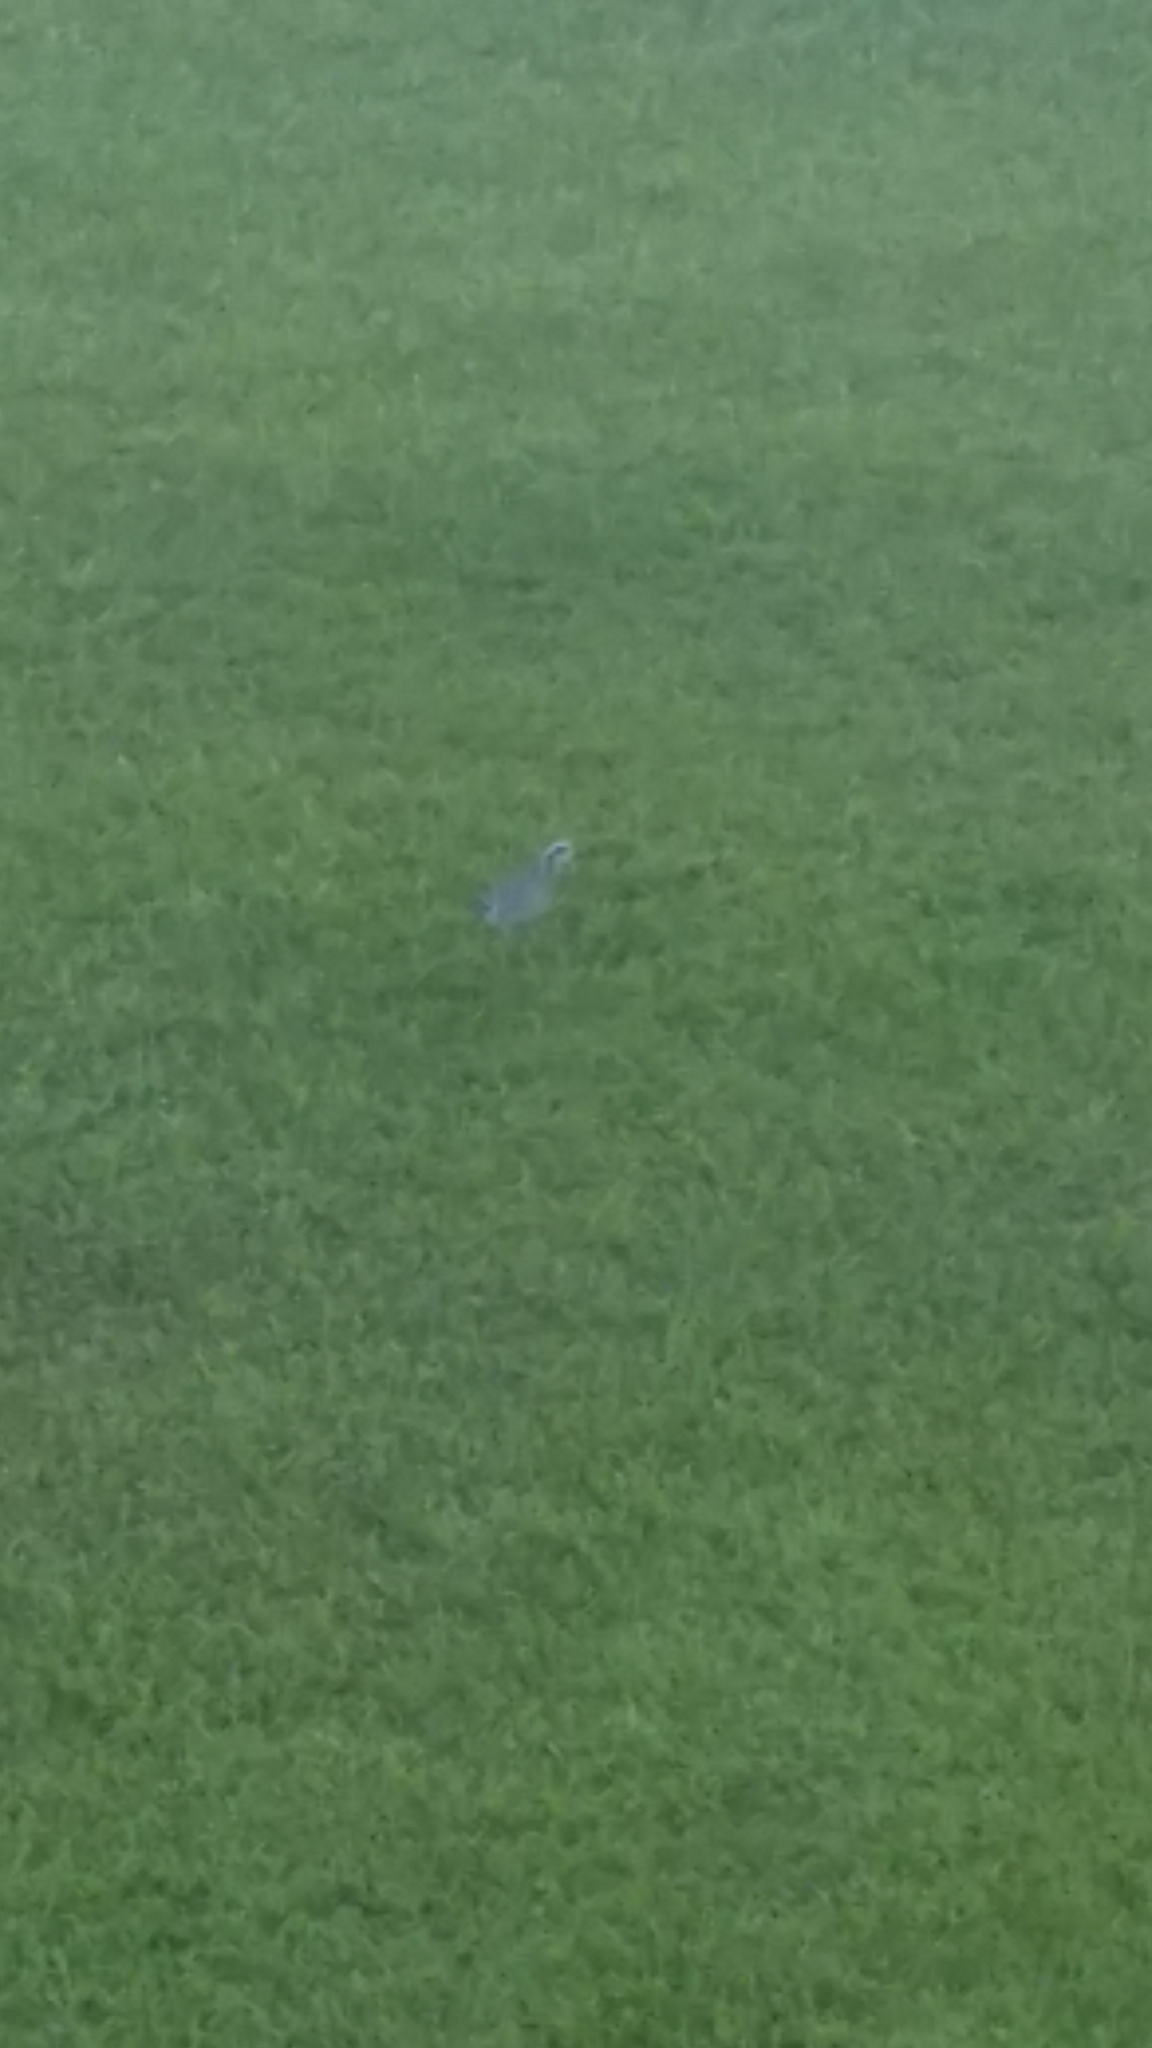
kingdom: Animalia
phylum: Chordata
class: Aves
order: Charadriiformes
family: Charadriidae
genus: Pluvialis
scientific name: Pluvialis fulva
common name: Pacific golden plover
